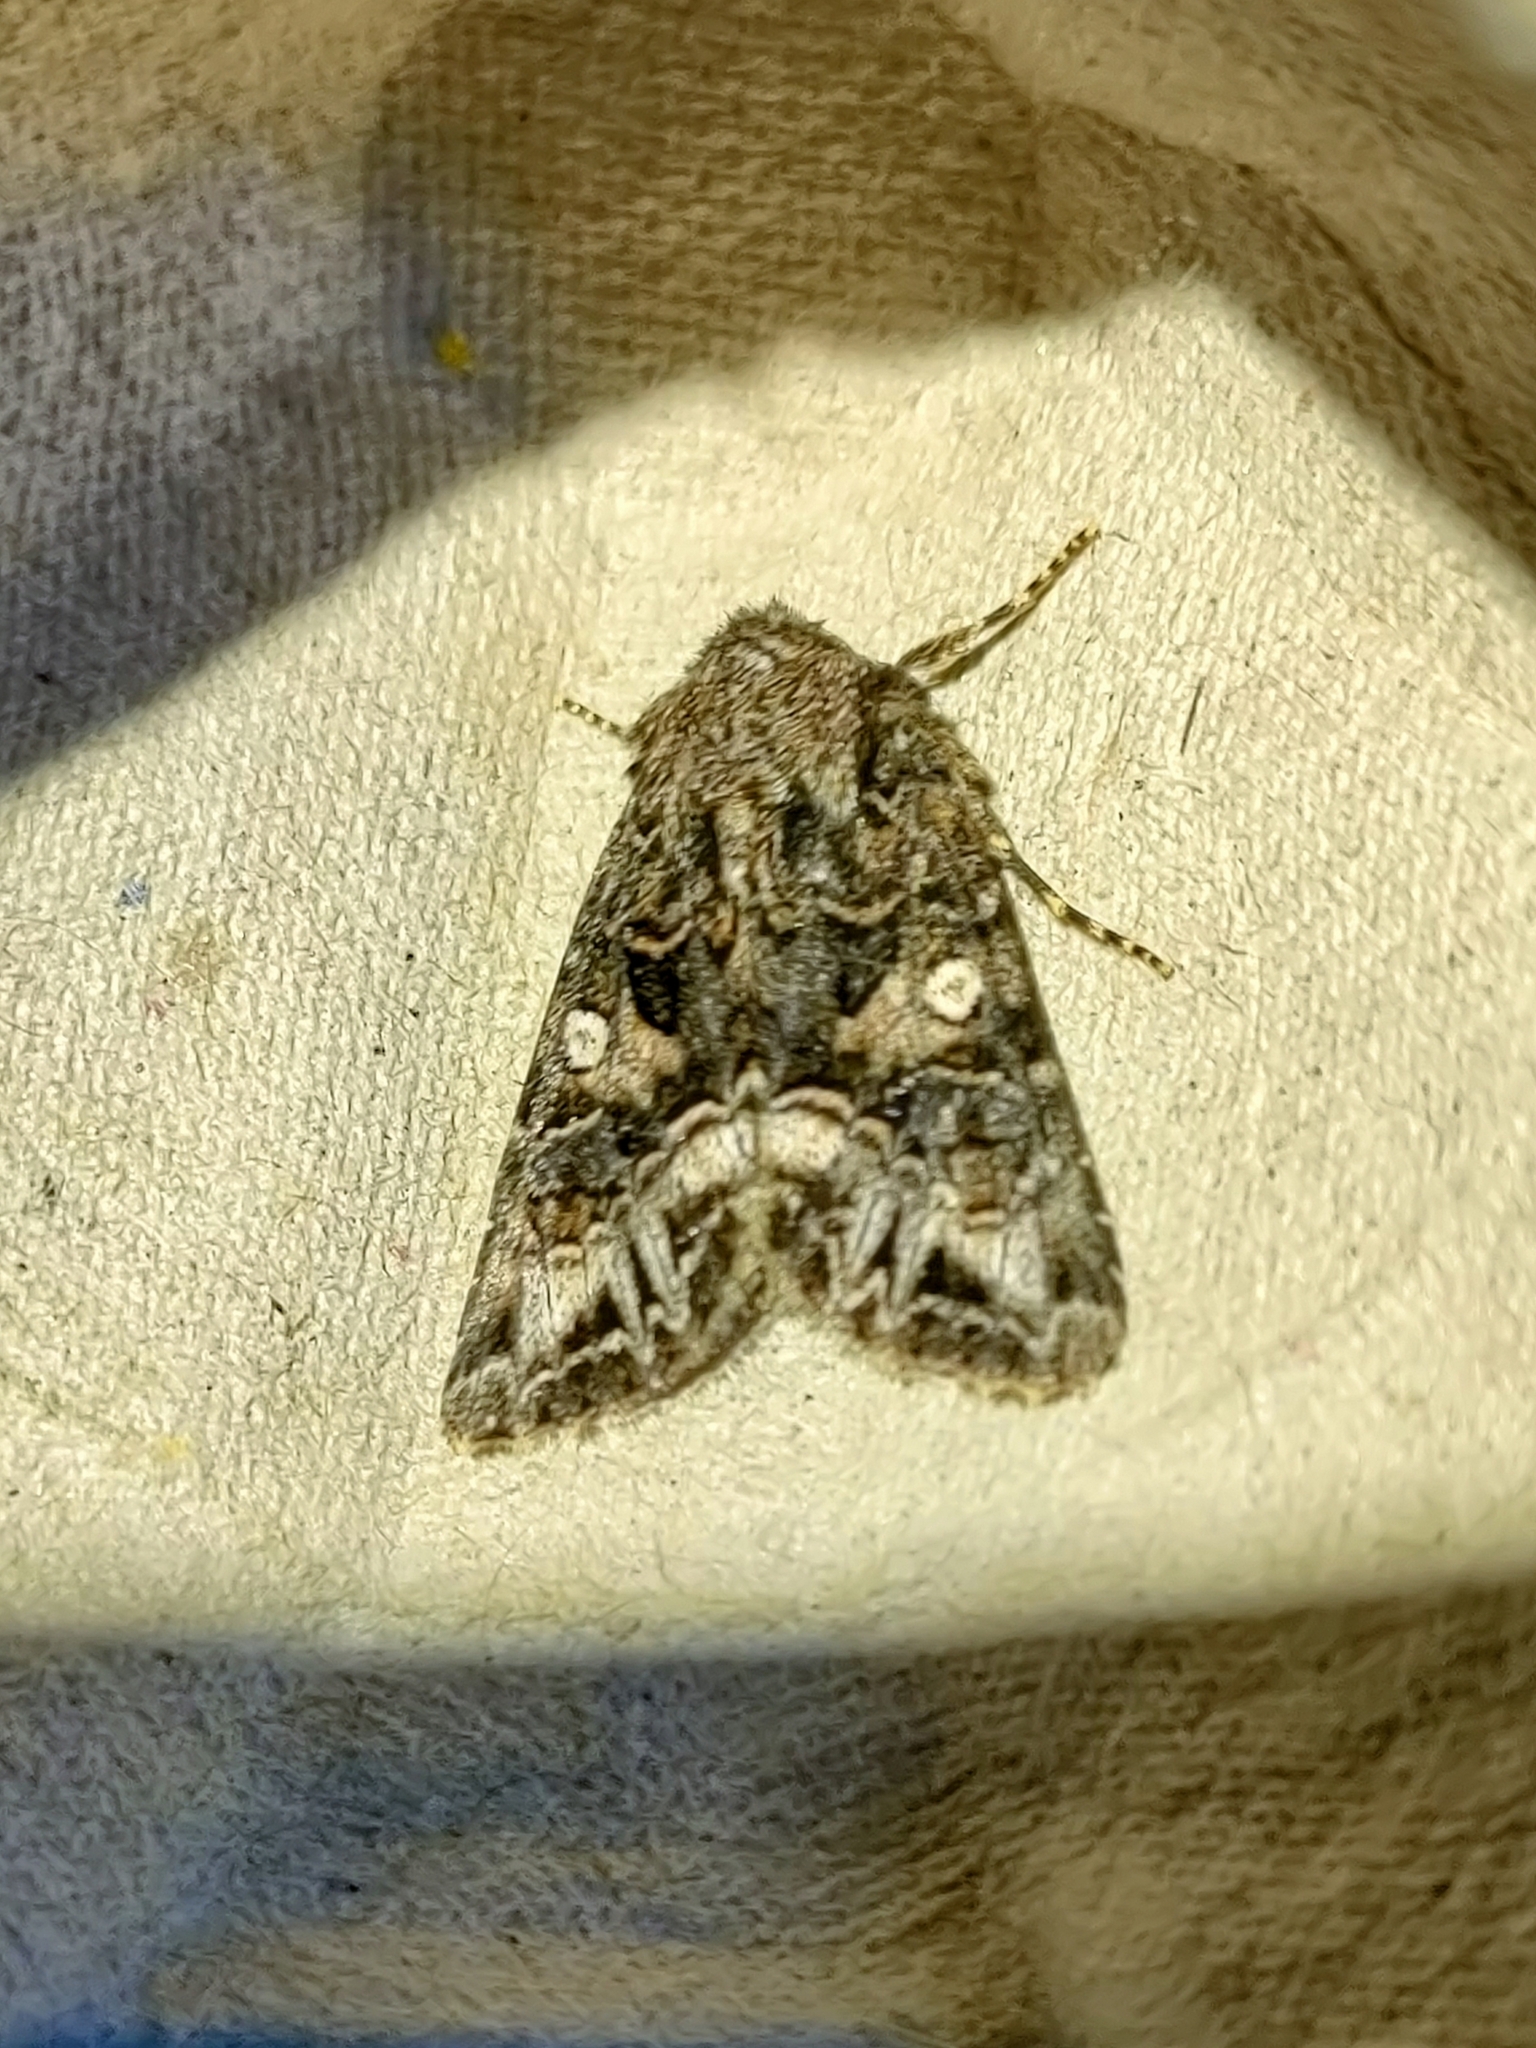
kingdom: Animalia
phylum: Arthropoda
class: Insecta
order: Lepidoptera
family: Noctuidae
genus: Anarta
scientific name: Anarta odontites
